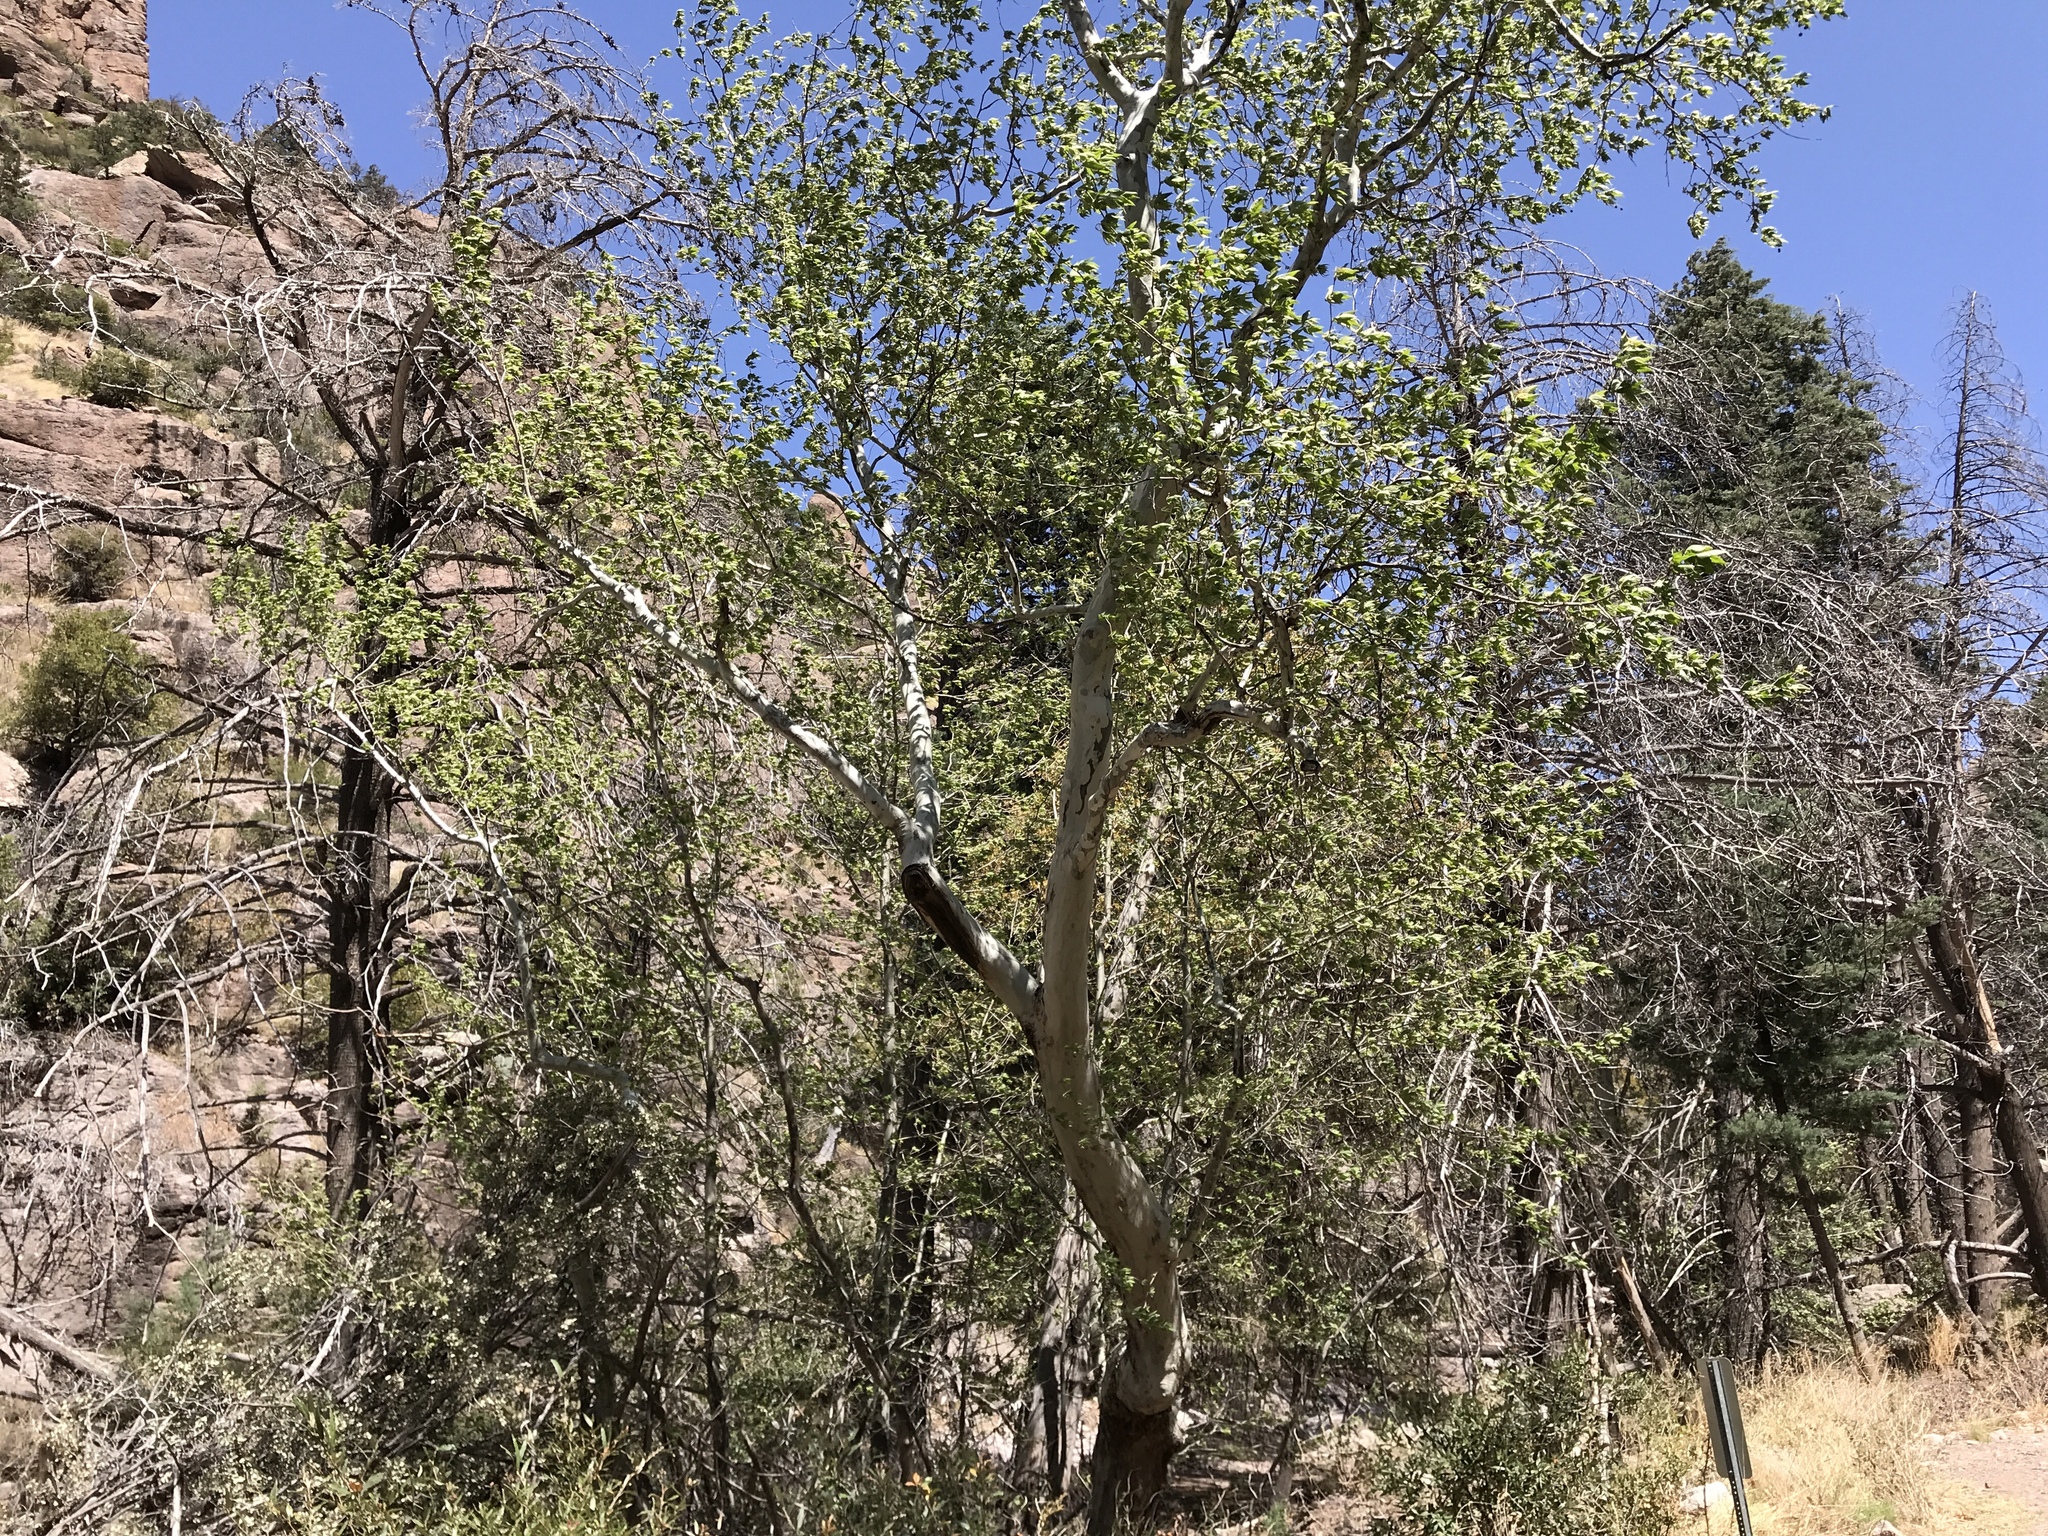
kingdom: Plantae
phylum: Tracheophyta
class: Magnoliopsida
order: Proteales
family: Platanaceae
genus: Platanus
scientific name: Platanus wrightii
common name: Arizona sycamore
